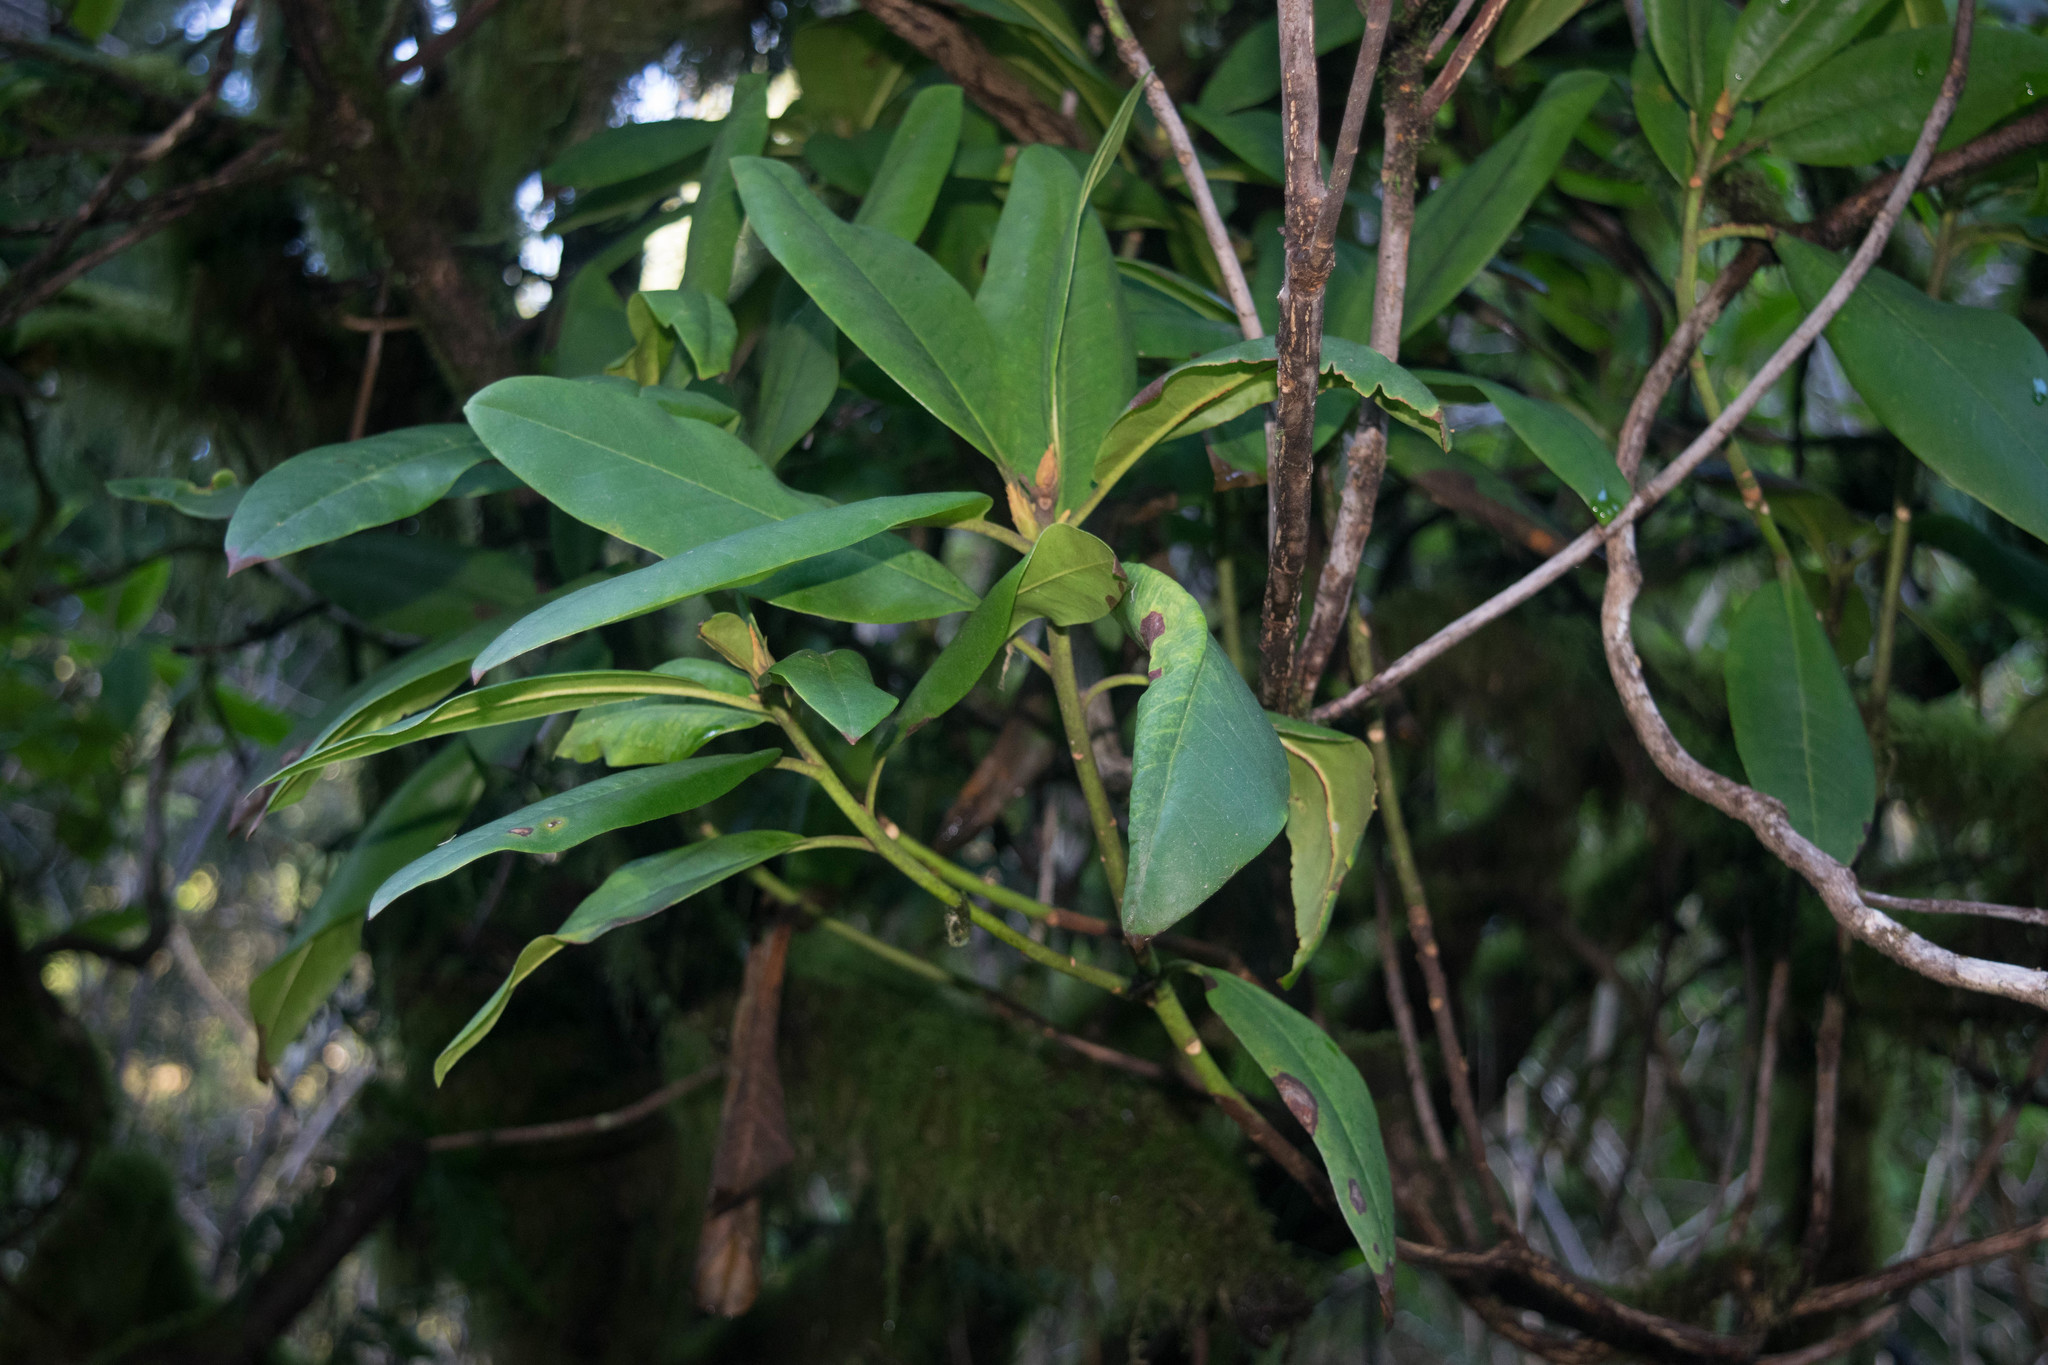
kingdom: Plantae
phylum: Tracheophyta
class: Magnoliopsida
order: Ericales
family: Ericaceae
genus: Rhododendron
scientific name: Rhododendron macrophyllum
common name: California rose bay
